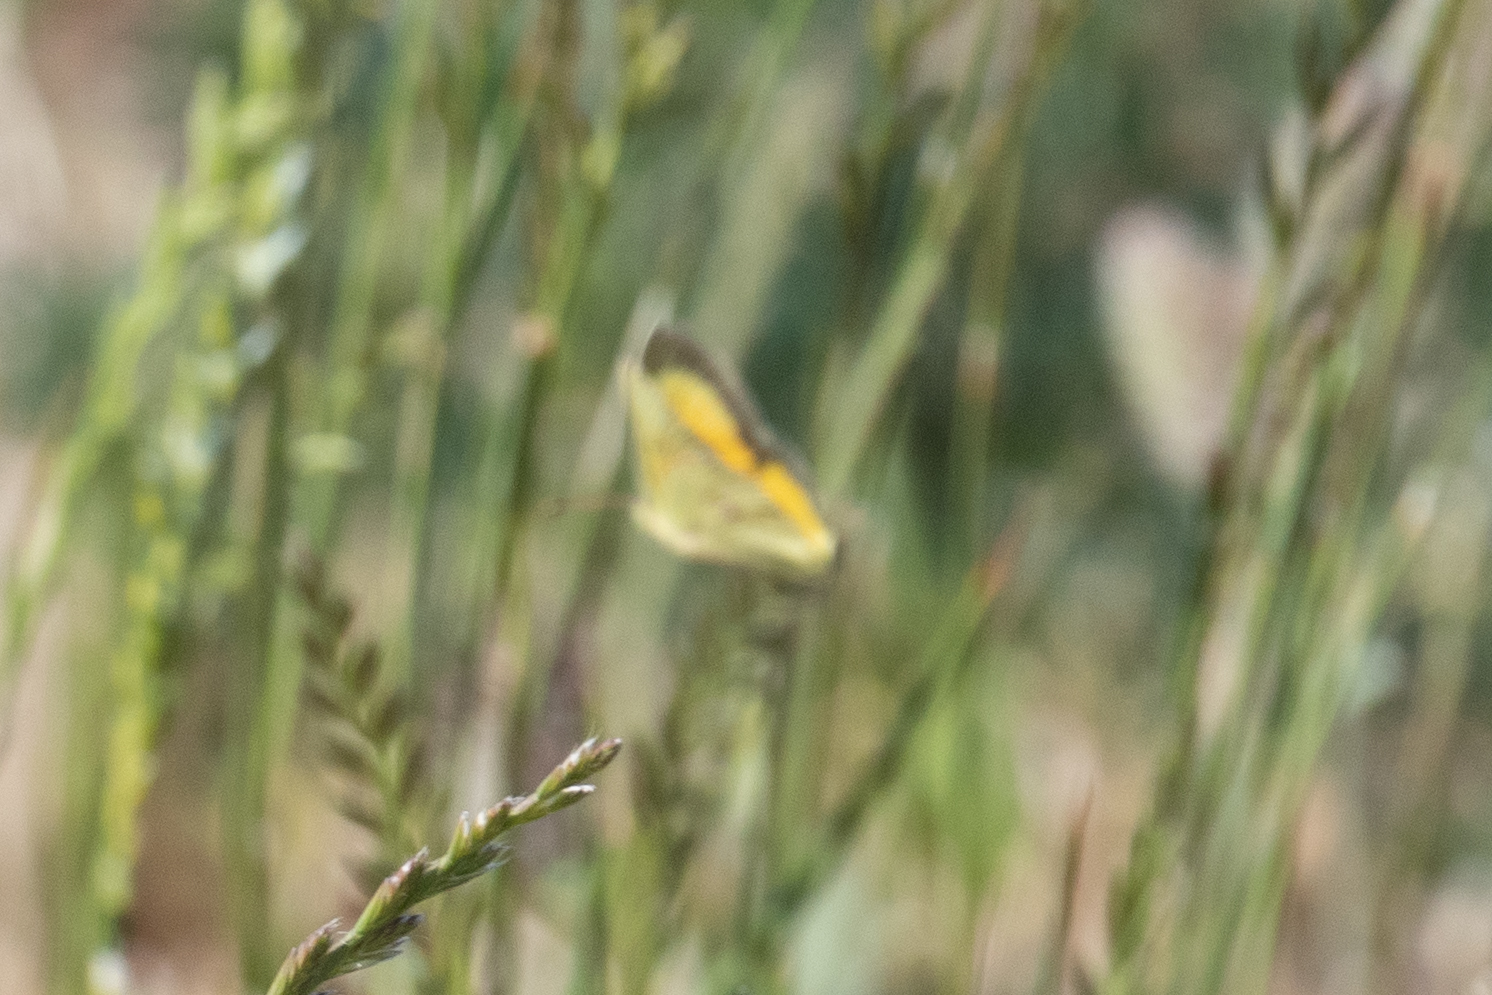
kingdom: Animalia
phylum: Arthropoda
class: Insecta
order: Lepidoptera
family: Pieridae
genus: Colias
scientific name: Colias eurytheme
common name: Alfalfa butterfly
